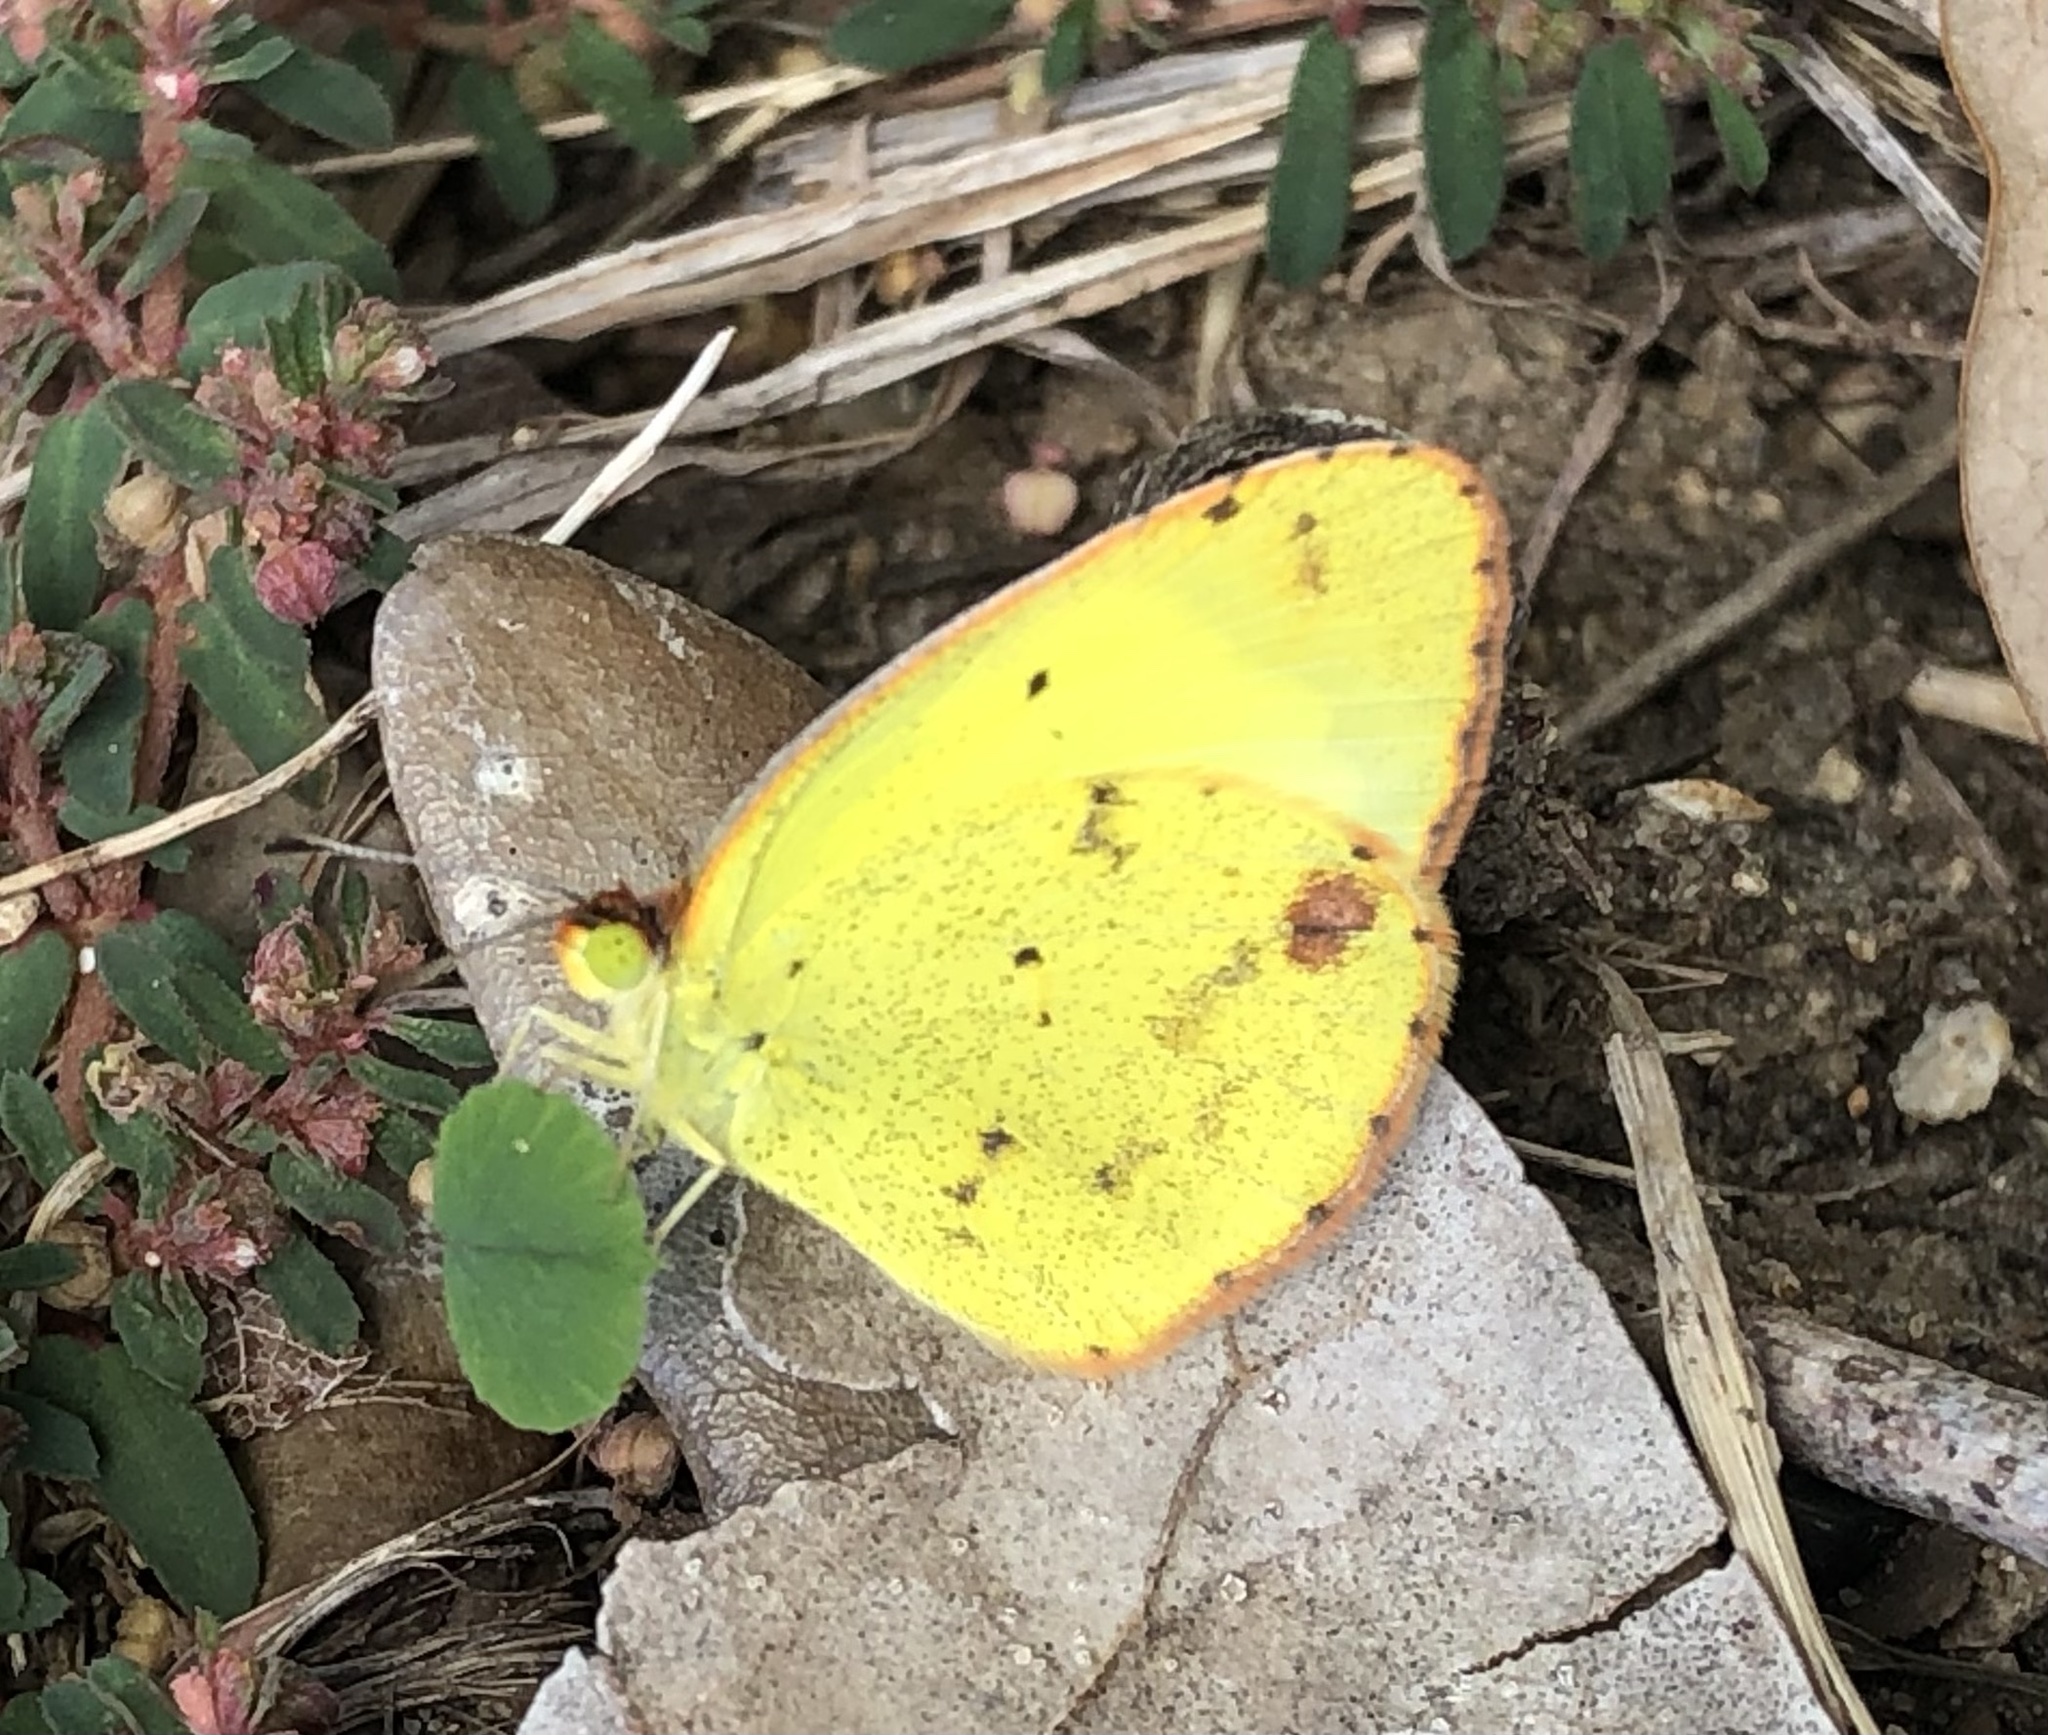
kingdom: Animalia
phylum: Arthropoda
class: Insecta
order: Lepidoptera
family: Pieridae
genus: Pyrisitia
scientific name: Pyrisitia lisa
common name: Little yellow
